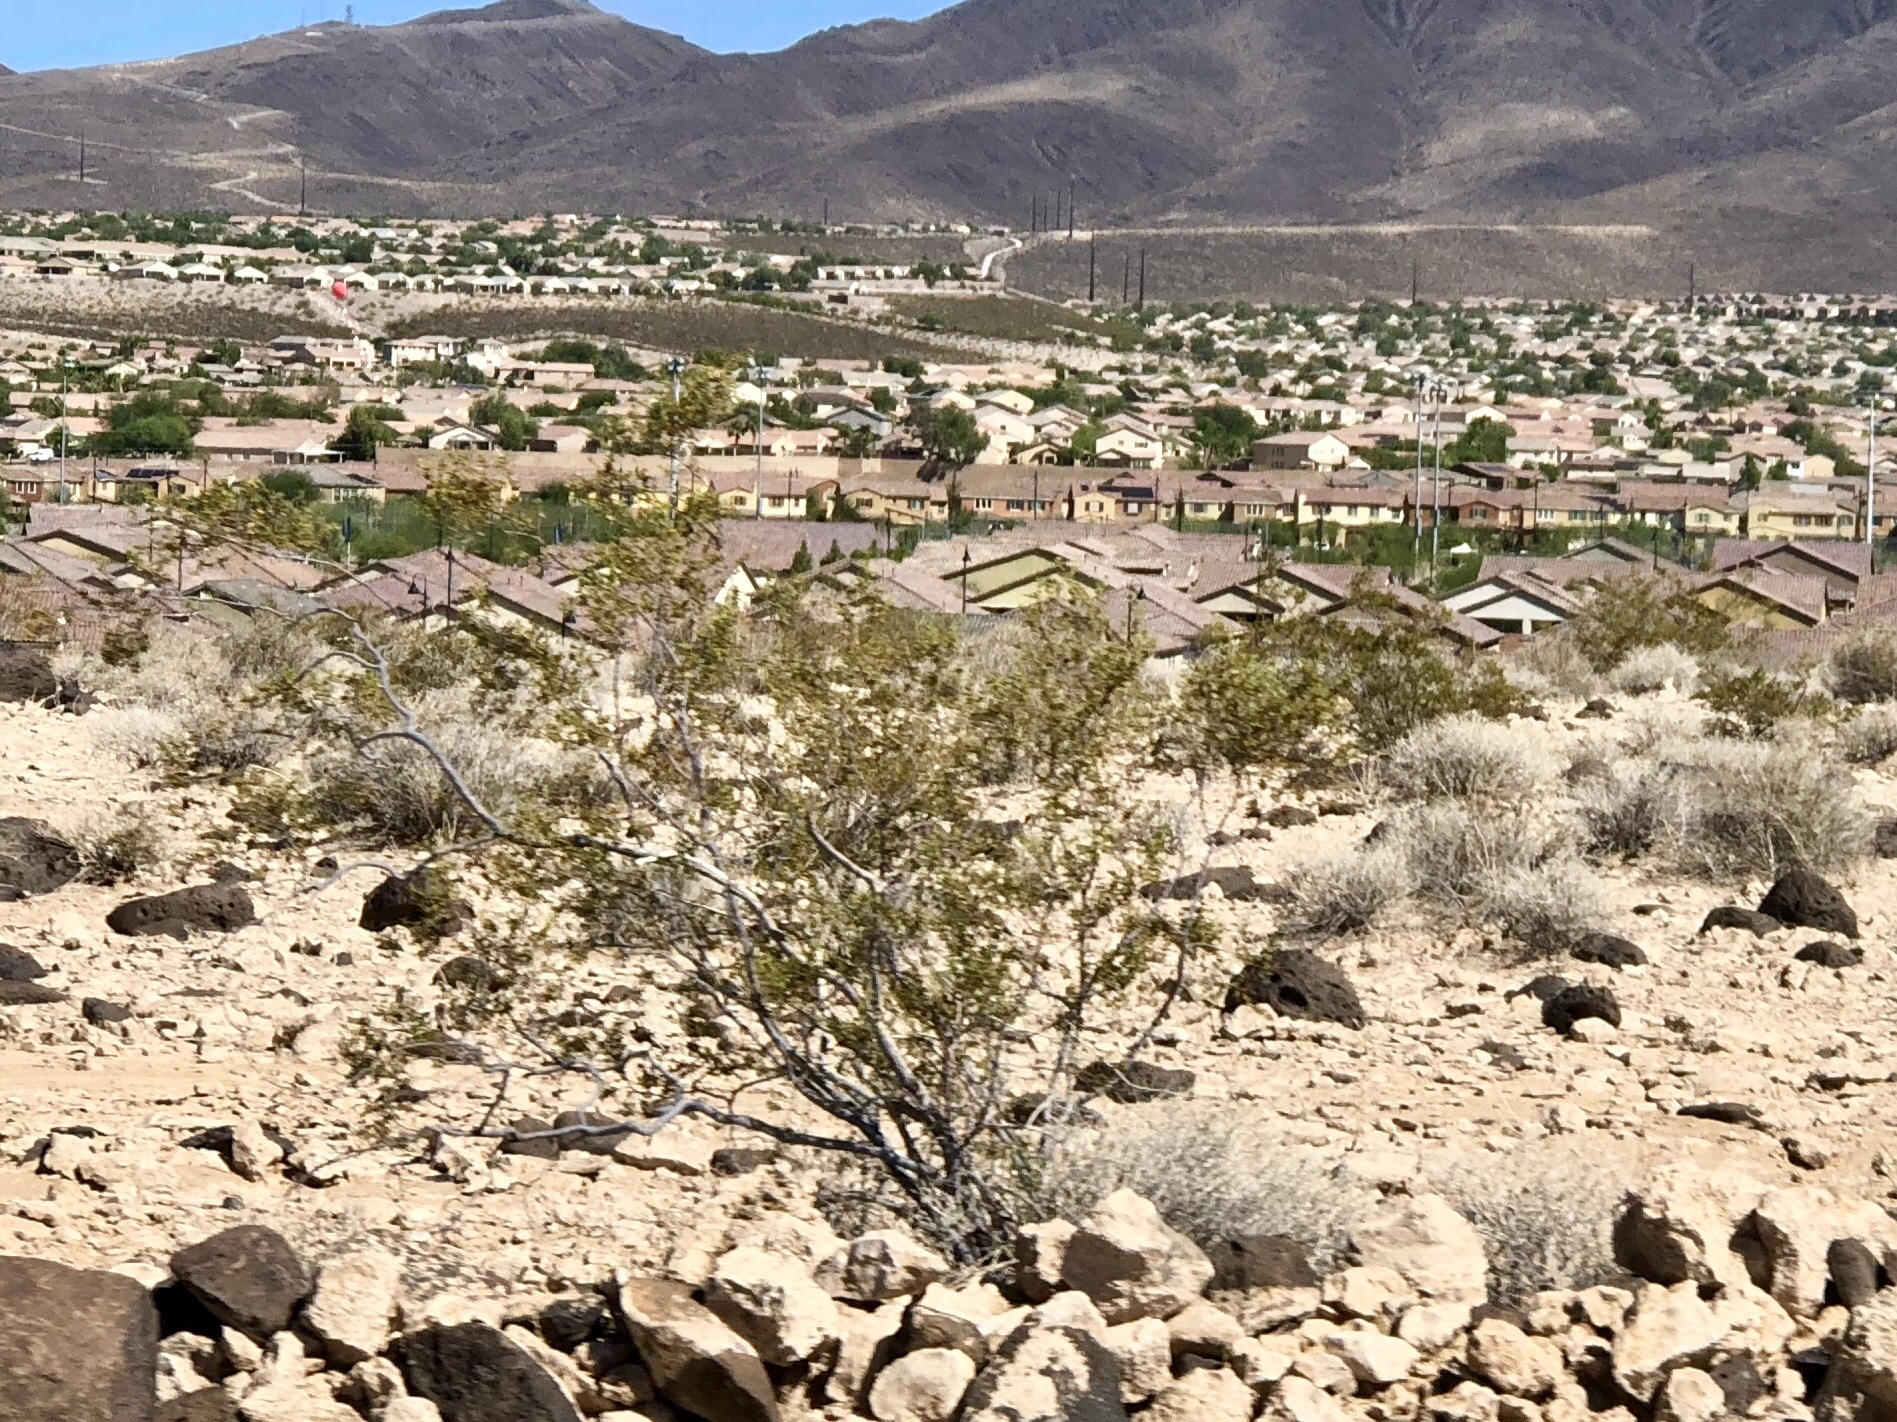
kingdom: Plantae
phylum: Tracheophyta
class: Magnoliopsida
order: Zygophyllales
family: Zygophyllaceae
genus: Larrea
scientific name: Larrea tridentata
